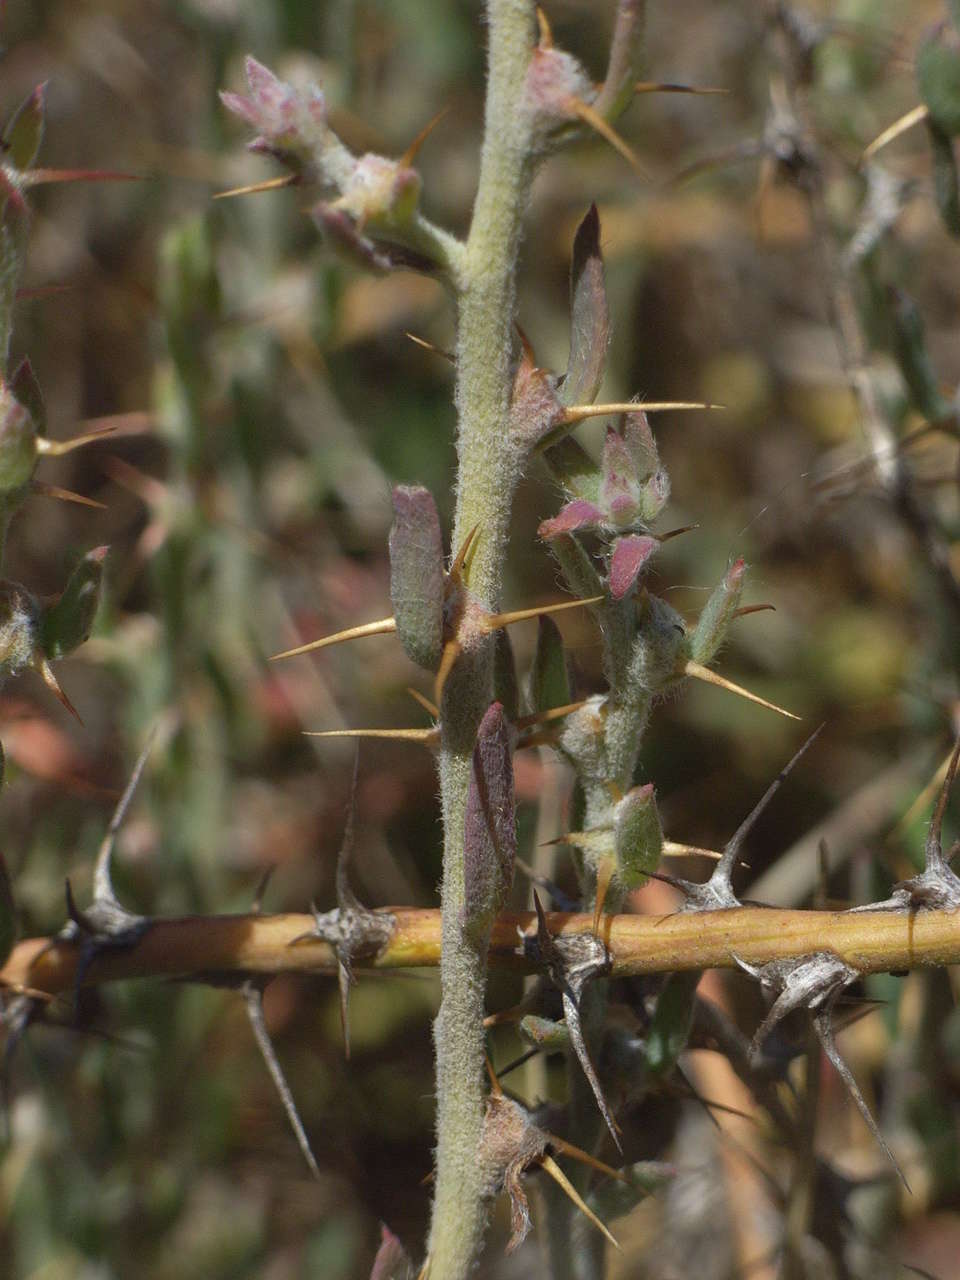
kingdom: Plantae
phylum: Tracheophyta
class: Magnoliopsida
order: Caryophyllales
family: Amaranthaceae
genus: Sclerolaena
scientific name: Sclerolaena muricata
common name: Roly-poly
